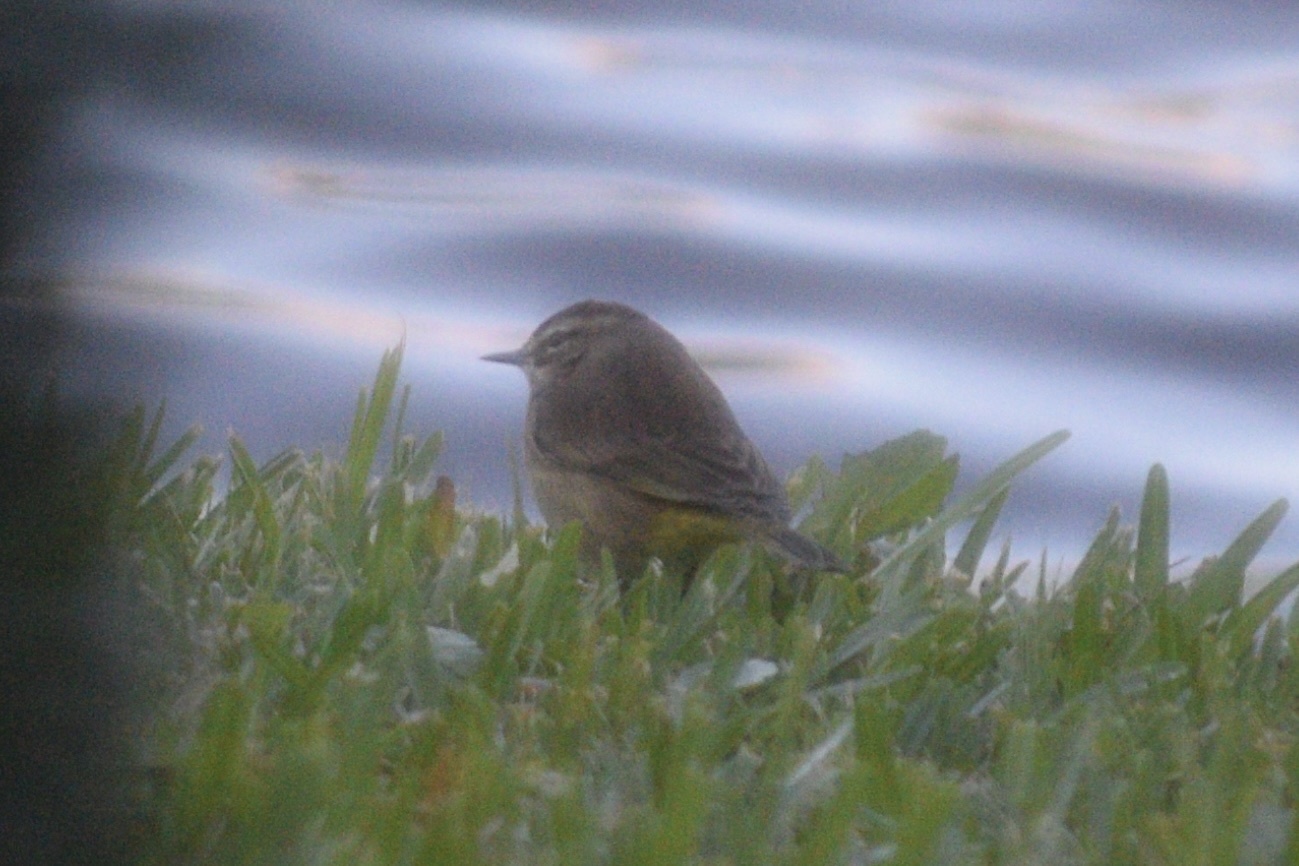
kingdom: Animalia
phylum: Chordata
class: Aves
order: Passeriformes
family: Parulidae
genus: Setophaga
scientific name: Setophaga palmarum
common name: Palm warbler
